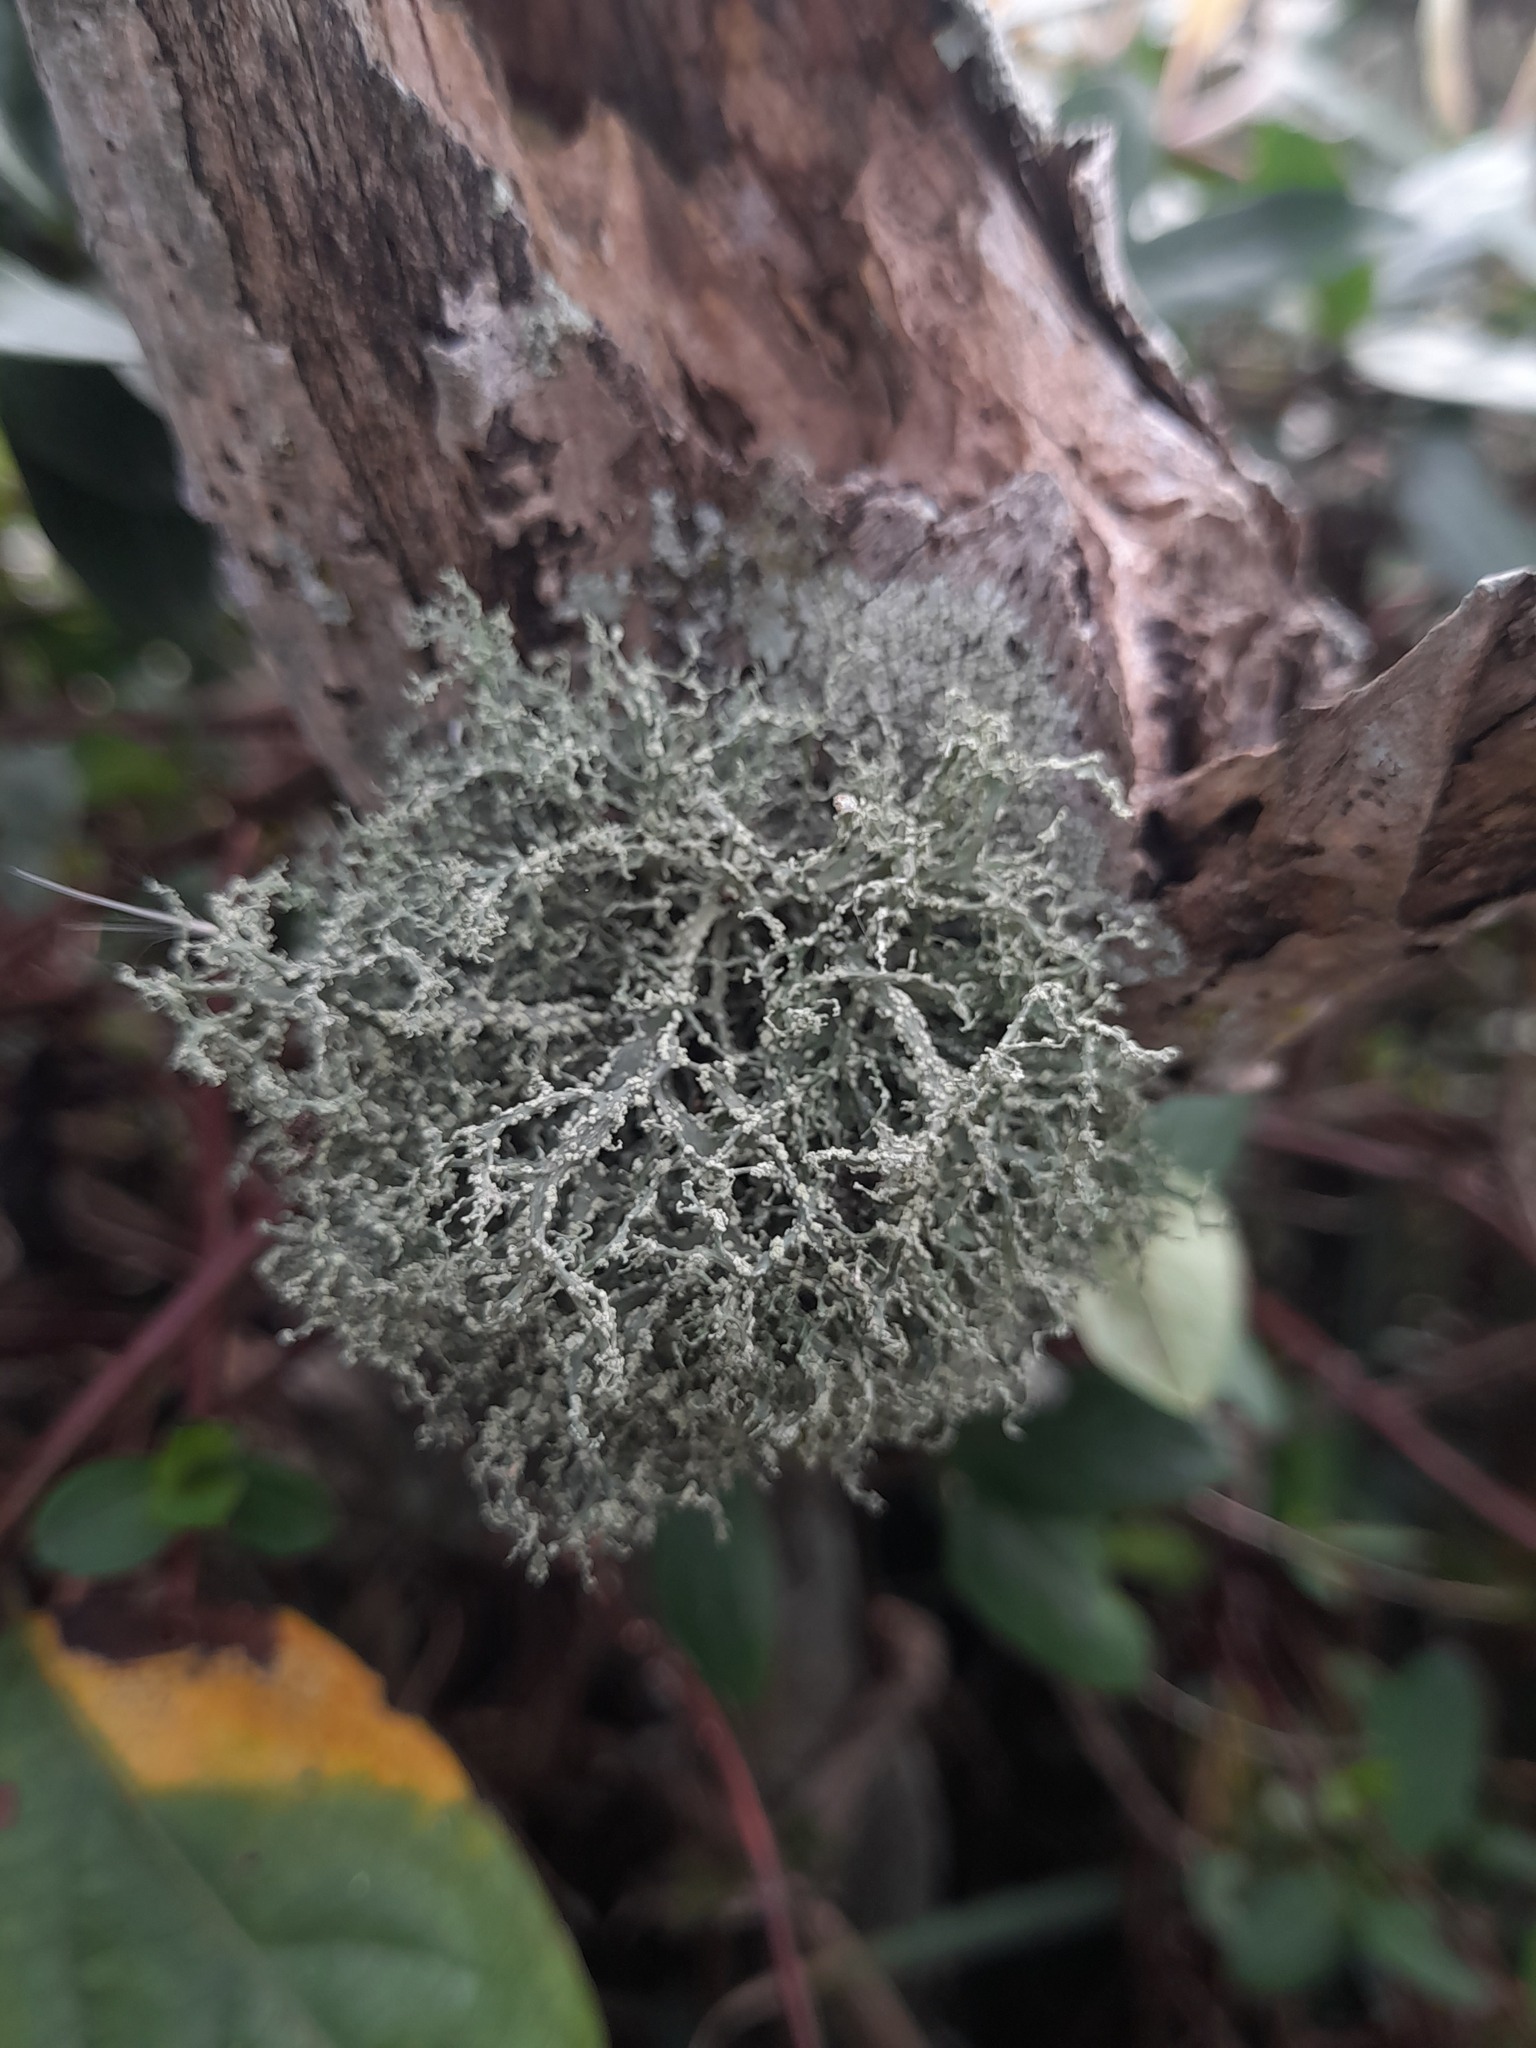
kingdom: Fungi
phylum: Ascomycota
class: Lecanoromycetes
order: Lecanorales
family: Ramalinaceae
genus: Ramalina
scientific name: Ramalina roesleri
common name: Frayed ribbon lichen
